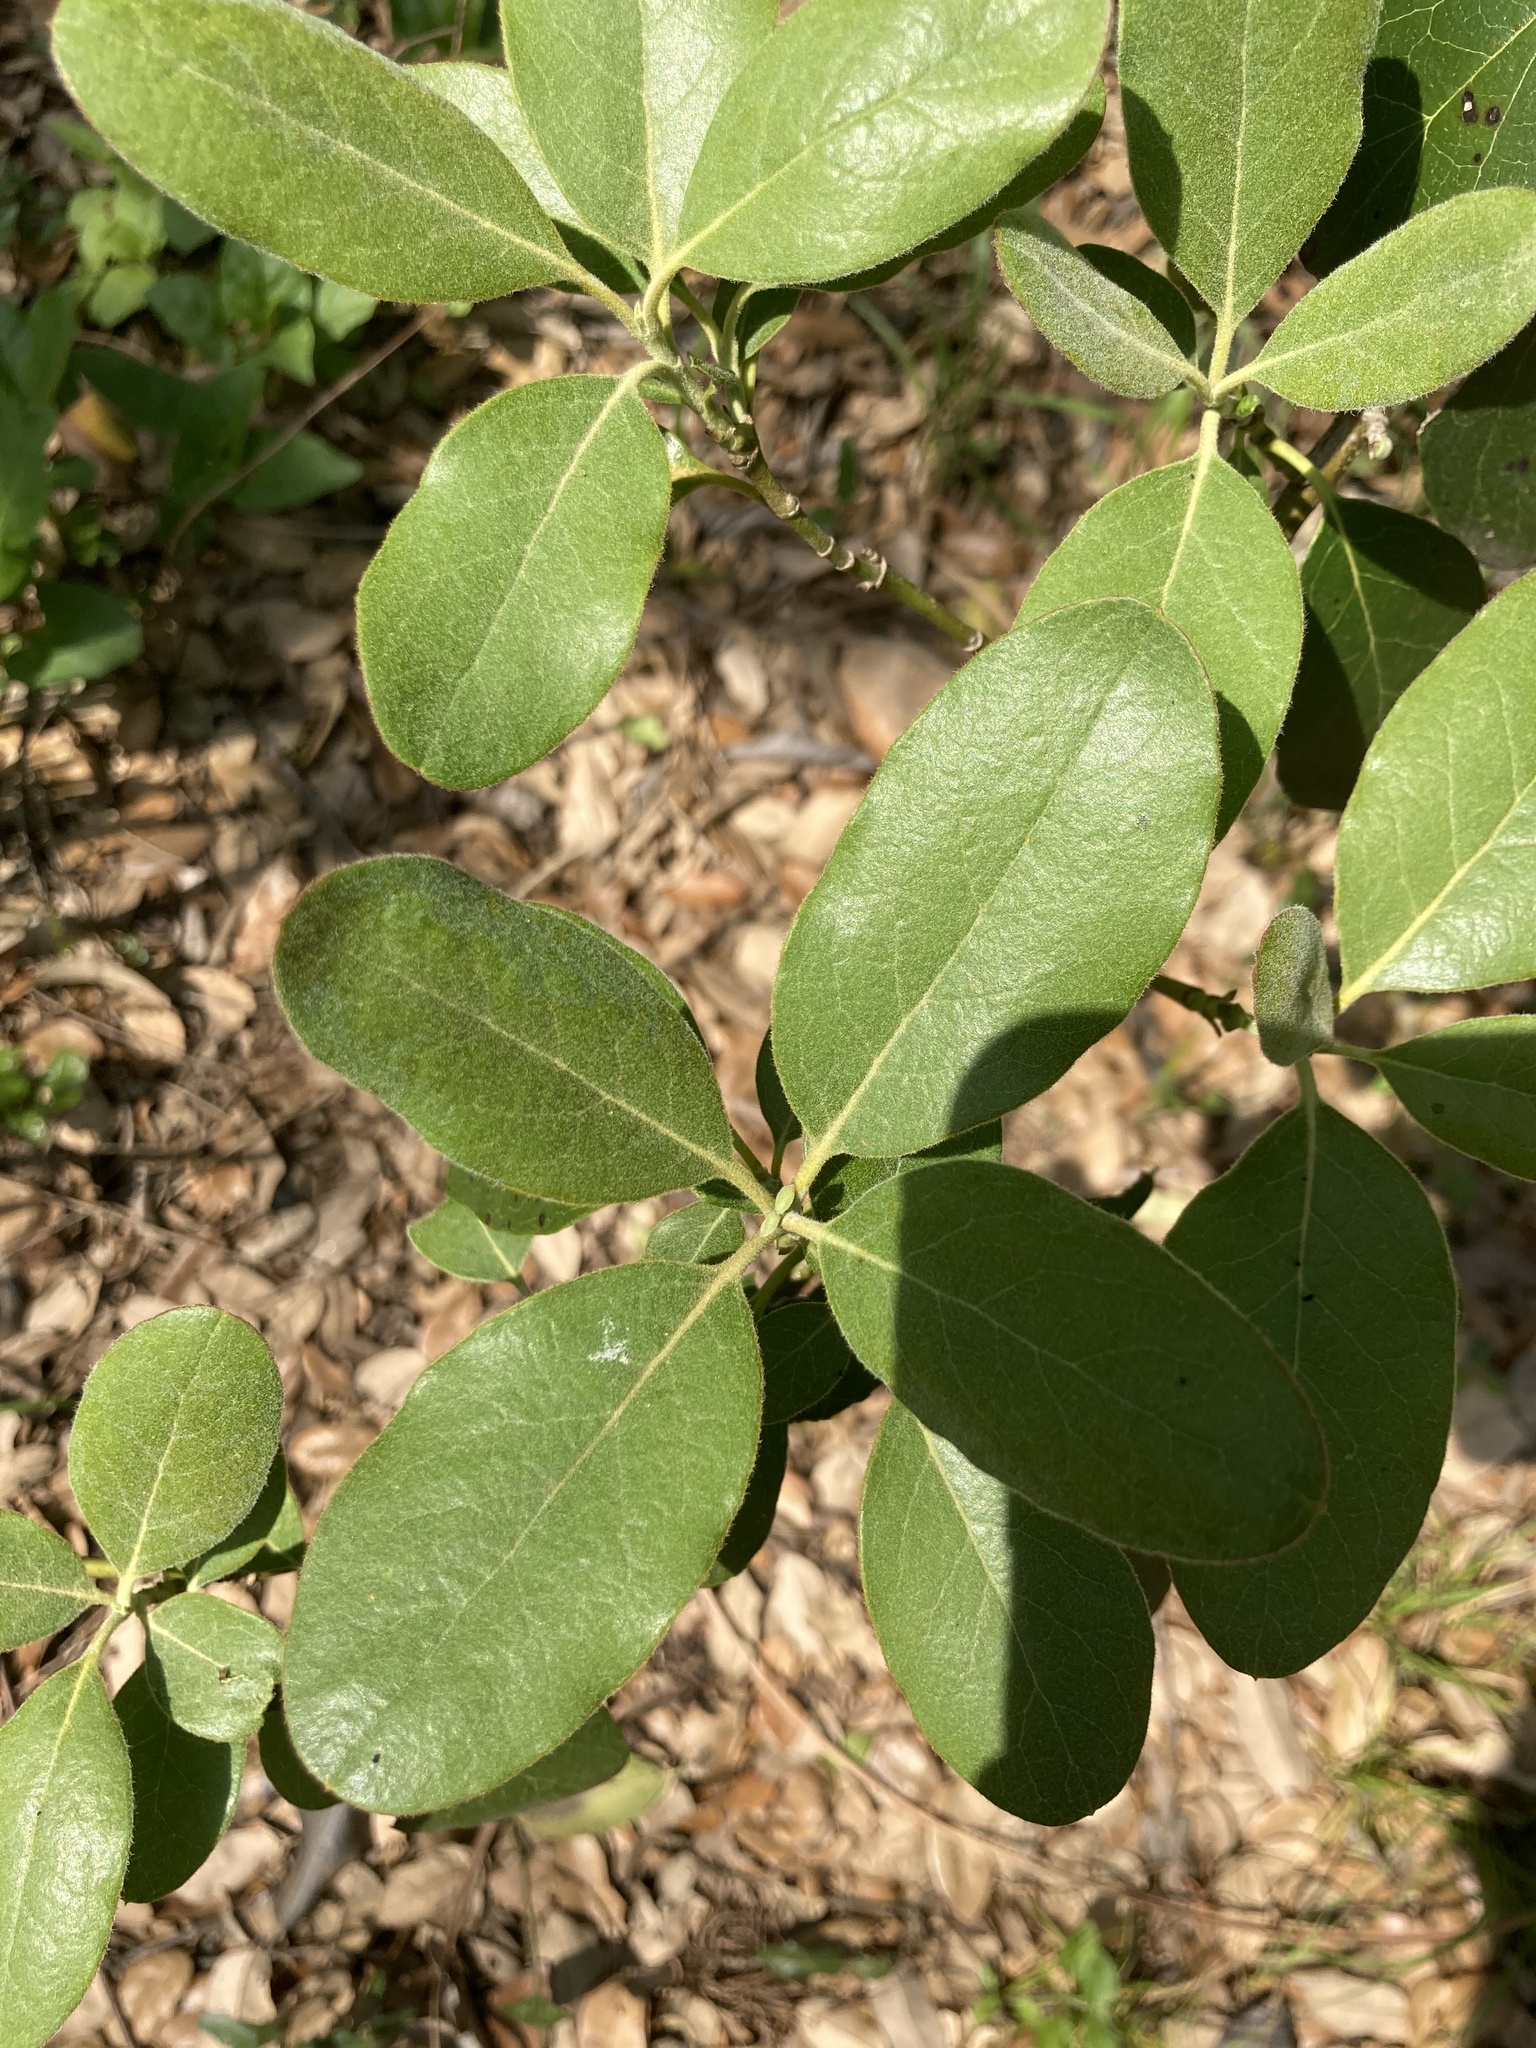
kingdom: Plantae
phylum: Tracheophyta
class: Magnoliopsida
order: Garryales
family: Garryaceae
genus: Garrya
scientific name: Garrya lindheimeri
